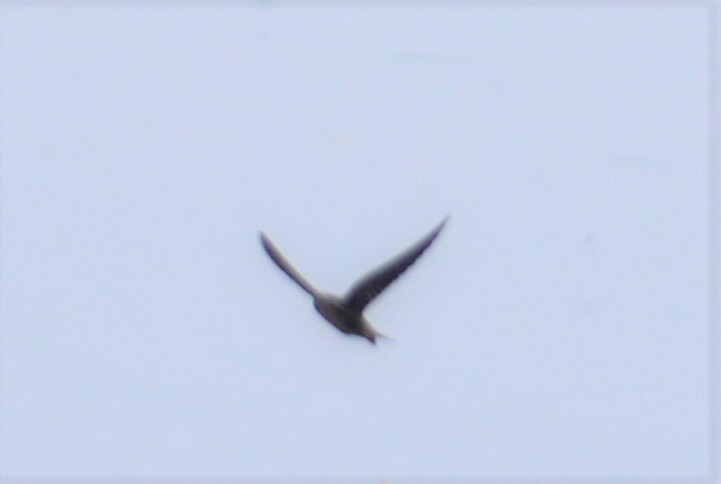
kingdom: Animalia
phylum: Chordata
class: Aves
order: Charadriiformes
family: Laridae
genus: Chlidonias
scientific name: Chlidonias niger
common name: Black tern
